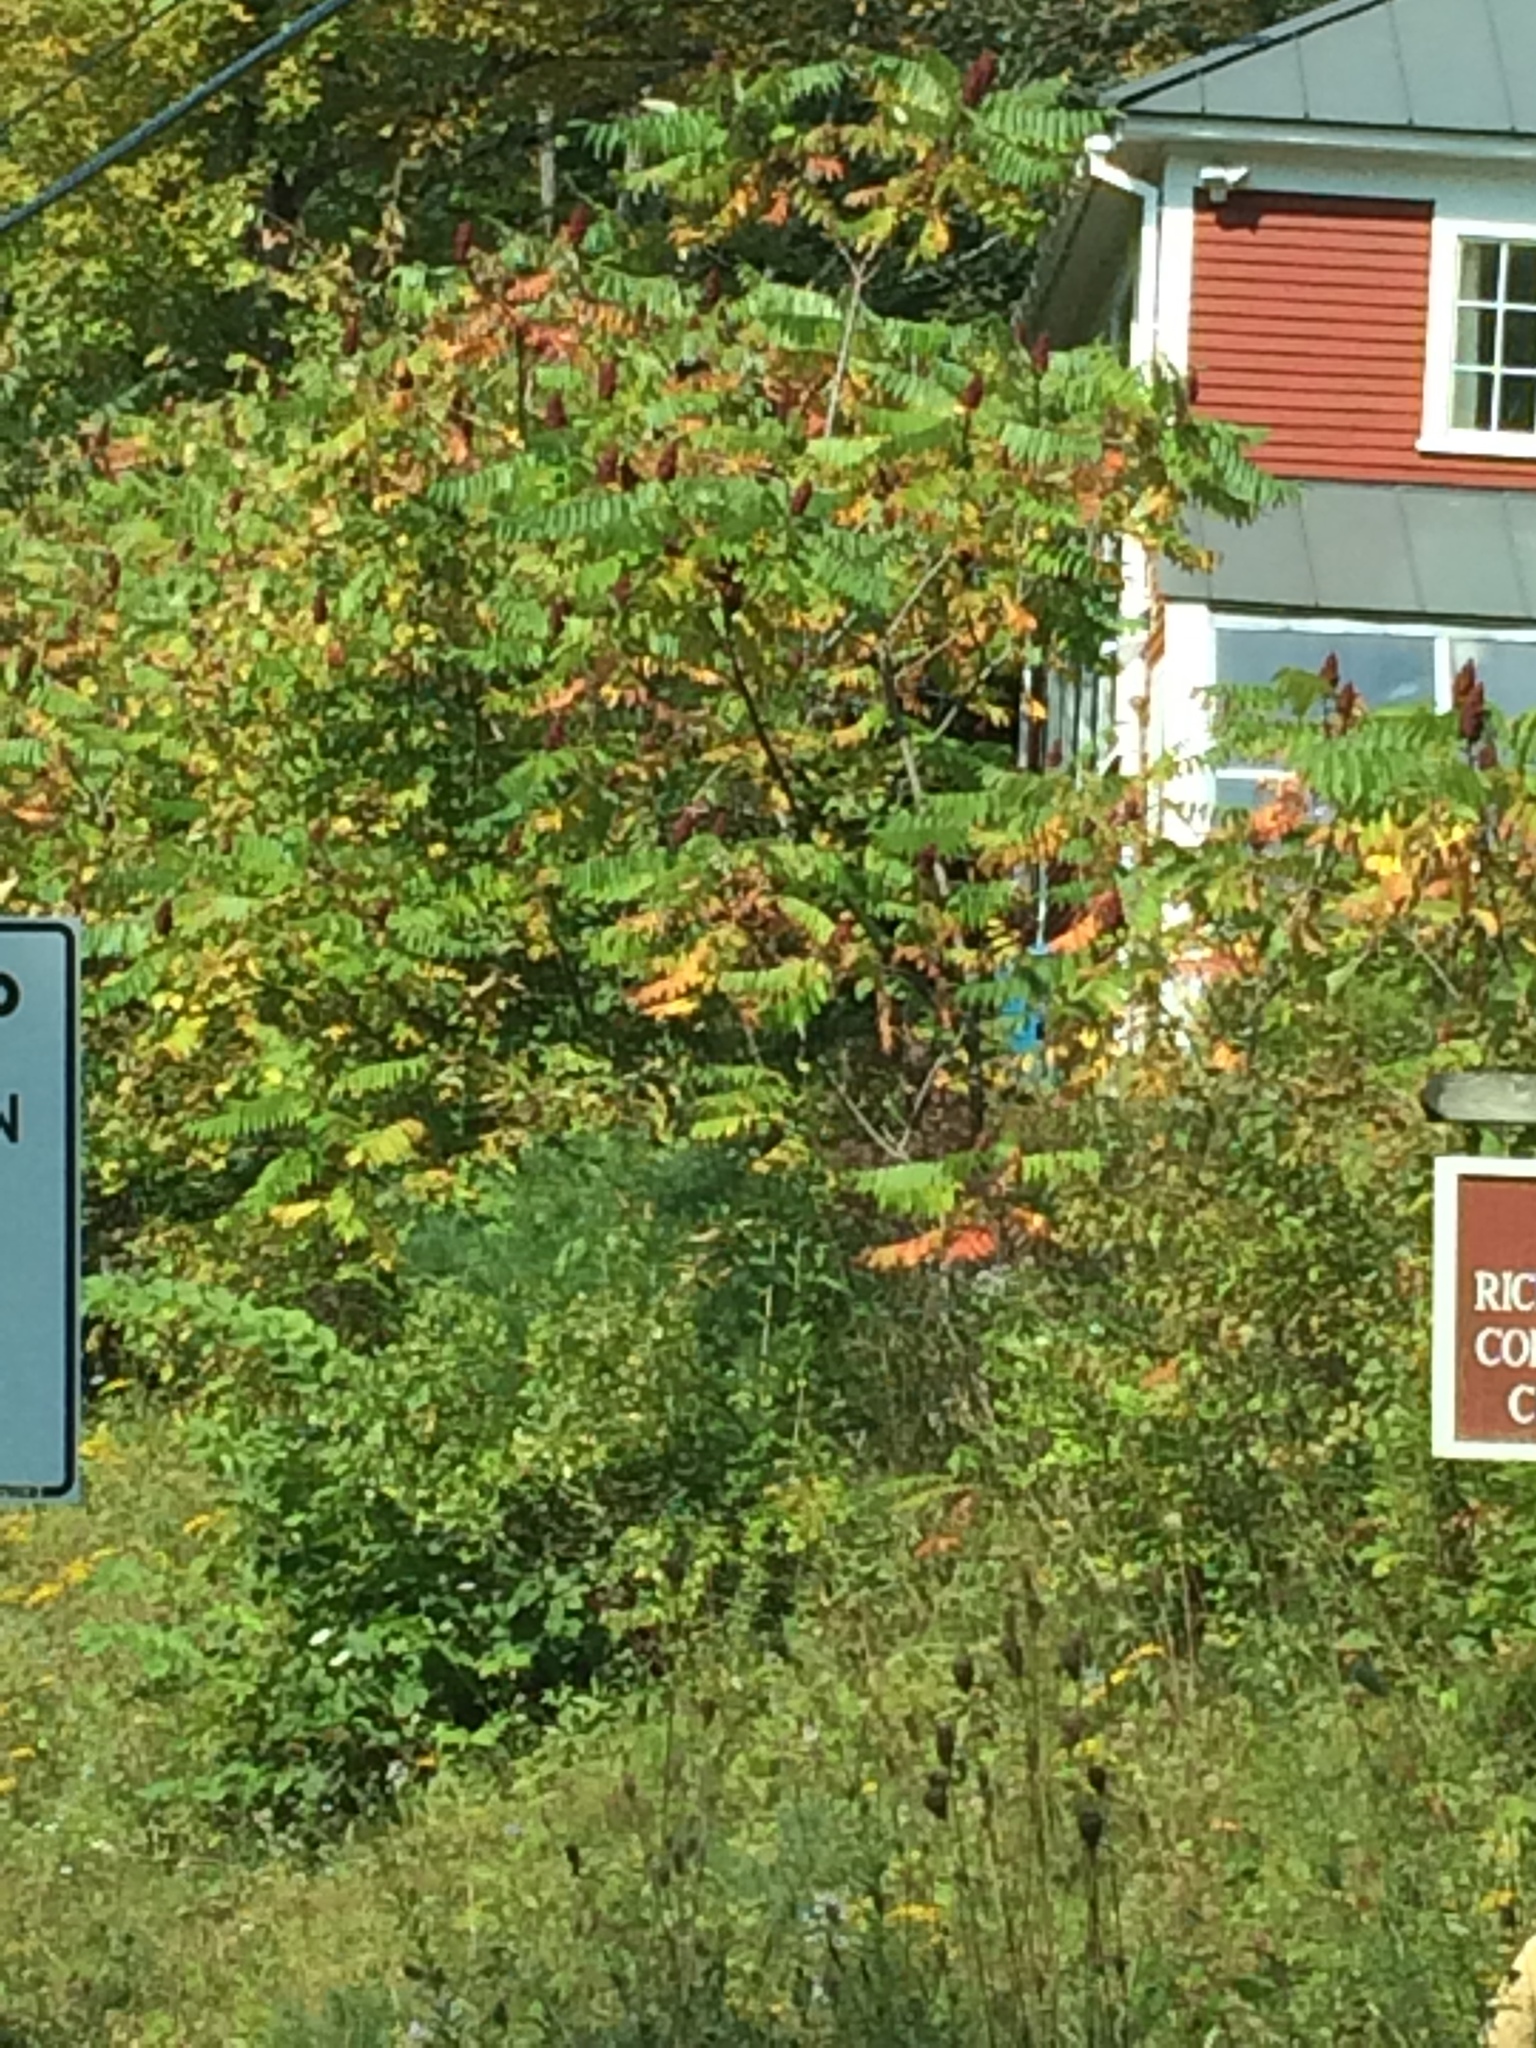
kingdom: Plantae
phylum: Tracheophyta
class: Magnoliopsida
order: Sapindales
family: Anacardiaceae
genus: Rhus
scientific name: Rhus typhina
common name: Staghorn sumac
